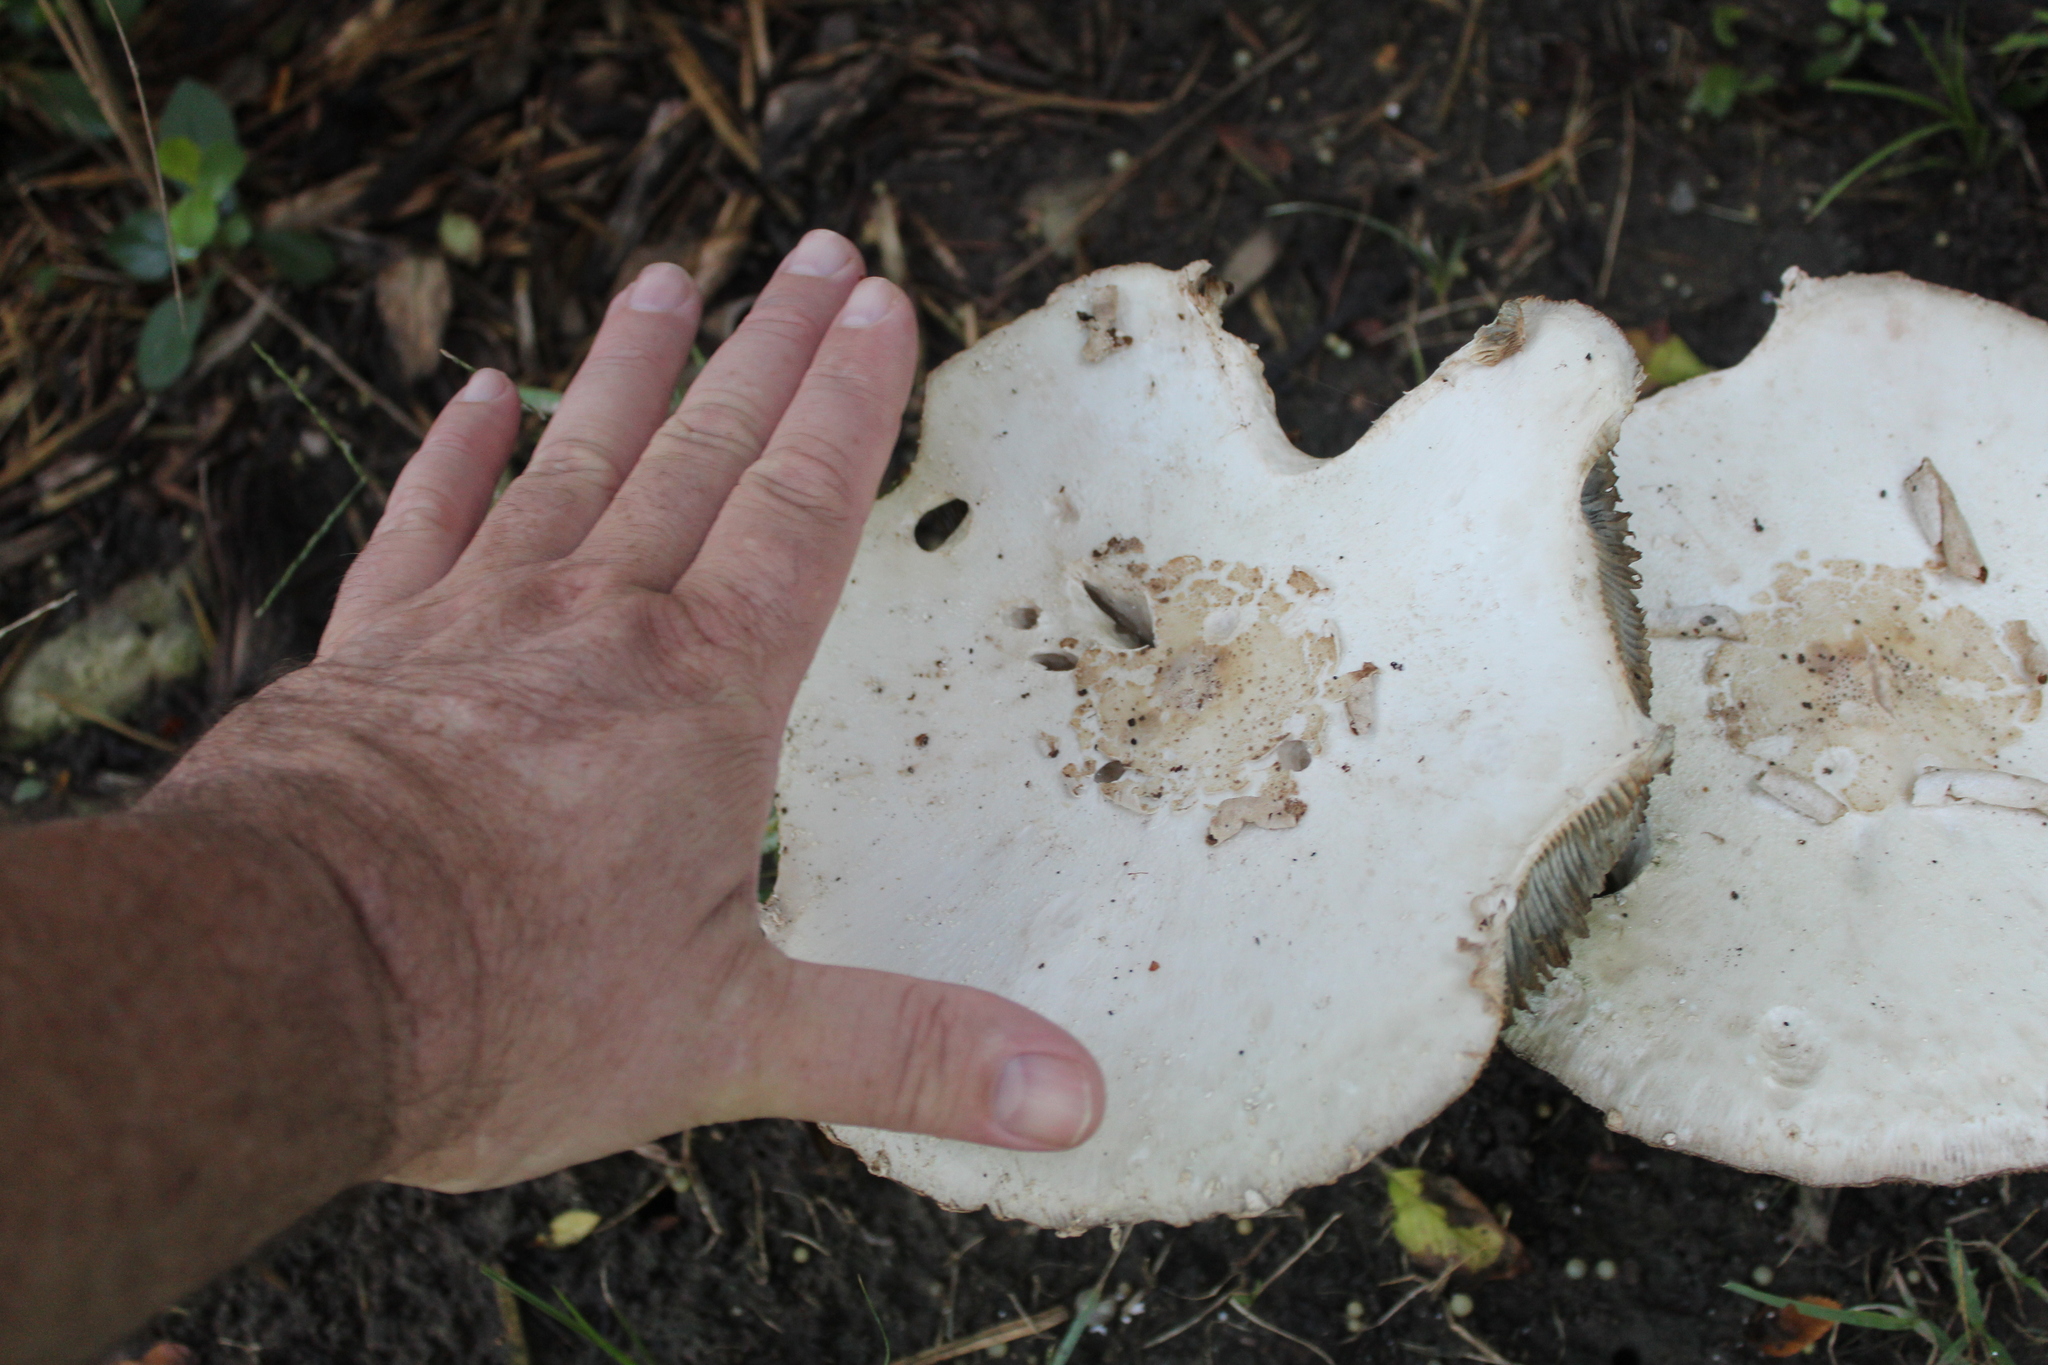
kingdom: Fungi
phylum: Basidiomycota
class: Agaricomycetes
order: Agaricales
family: Agaricaceae
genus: Chlorophyllum
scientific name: Chlorophyllum molybdites
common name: False parasol
